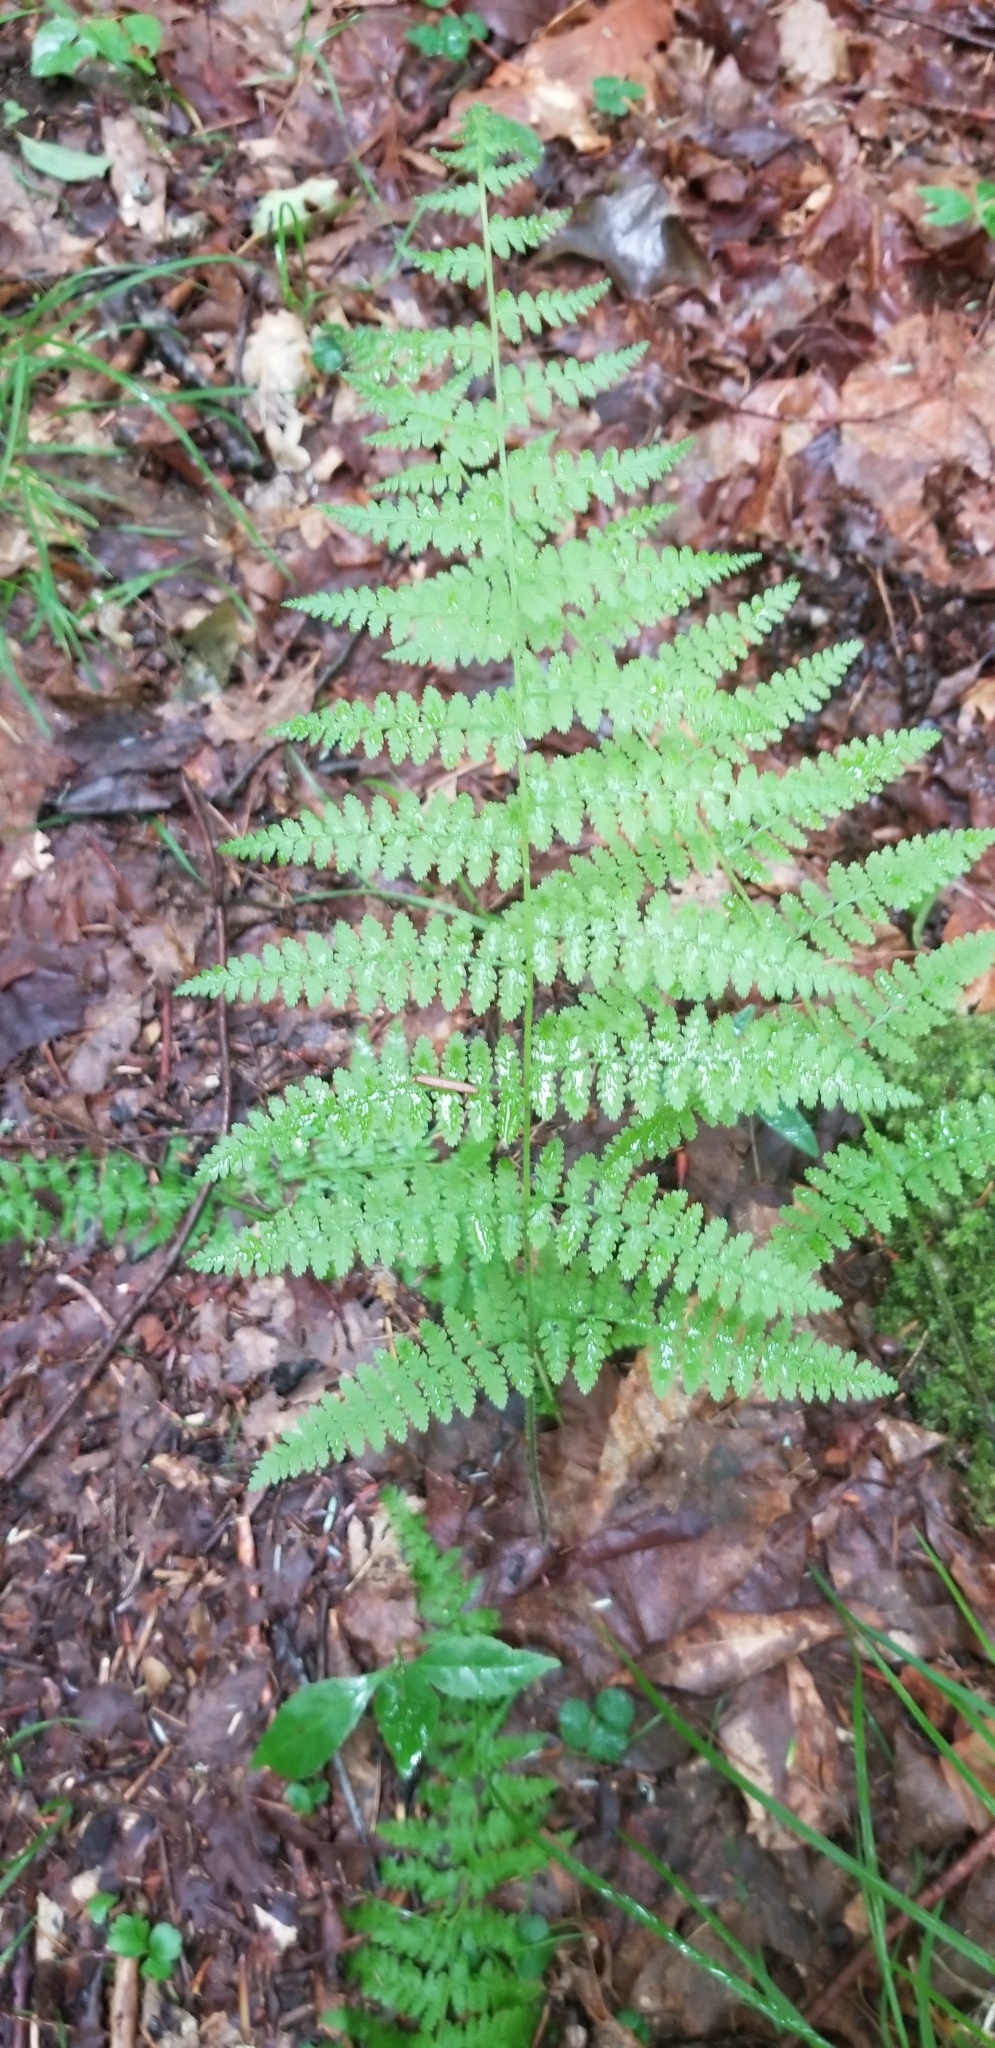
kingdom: Plantae
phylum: Tracheophyta
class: Polypodiopsida
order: Polypodiales
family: Dennstaedtiaceae
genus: Sitobolium
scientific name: Sitobolium punctilobum
